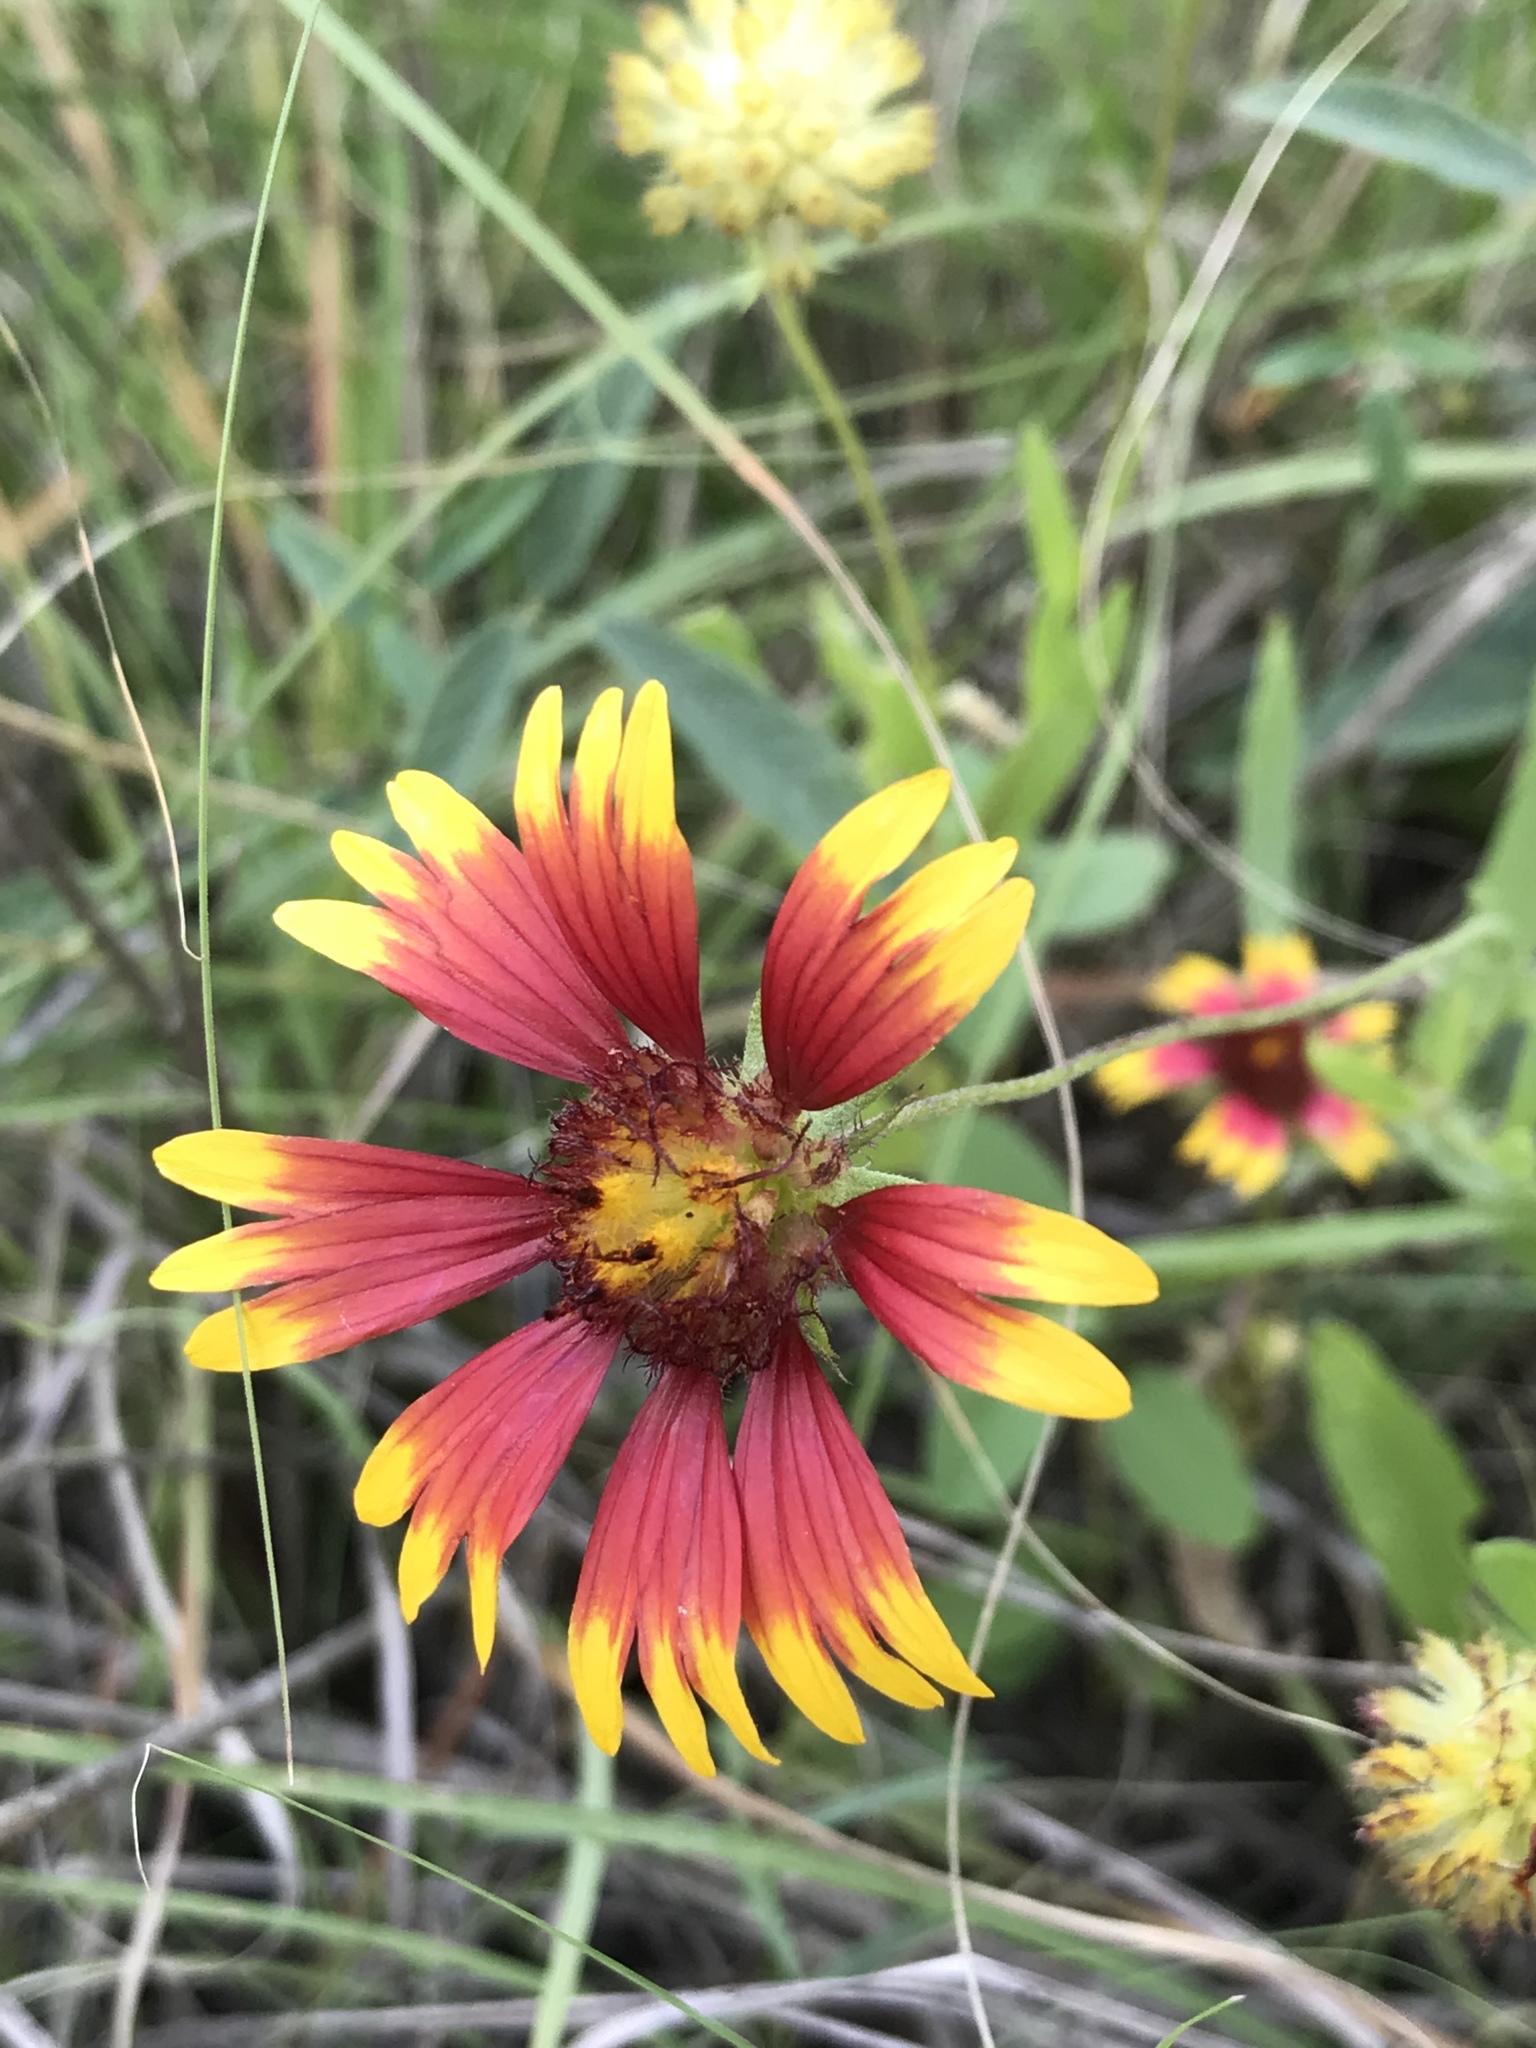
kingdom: Plantae
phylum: Tracheophyta
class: Magnoliopsida
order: Asterales
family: Asteraceae
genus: Gaillardia
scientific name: Gaillardia pulchella
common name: Firewheel
